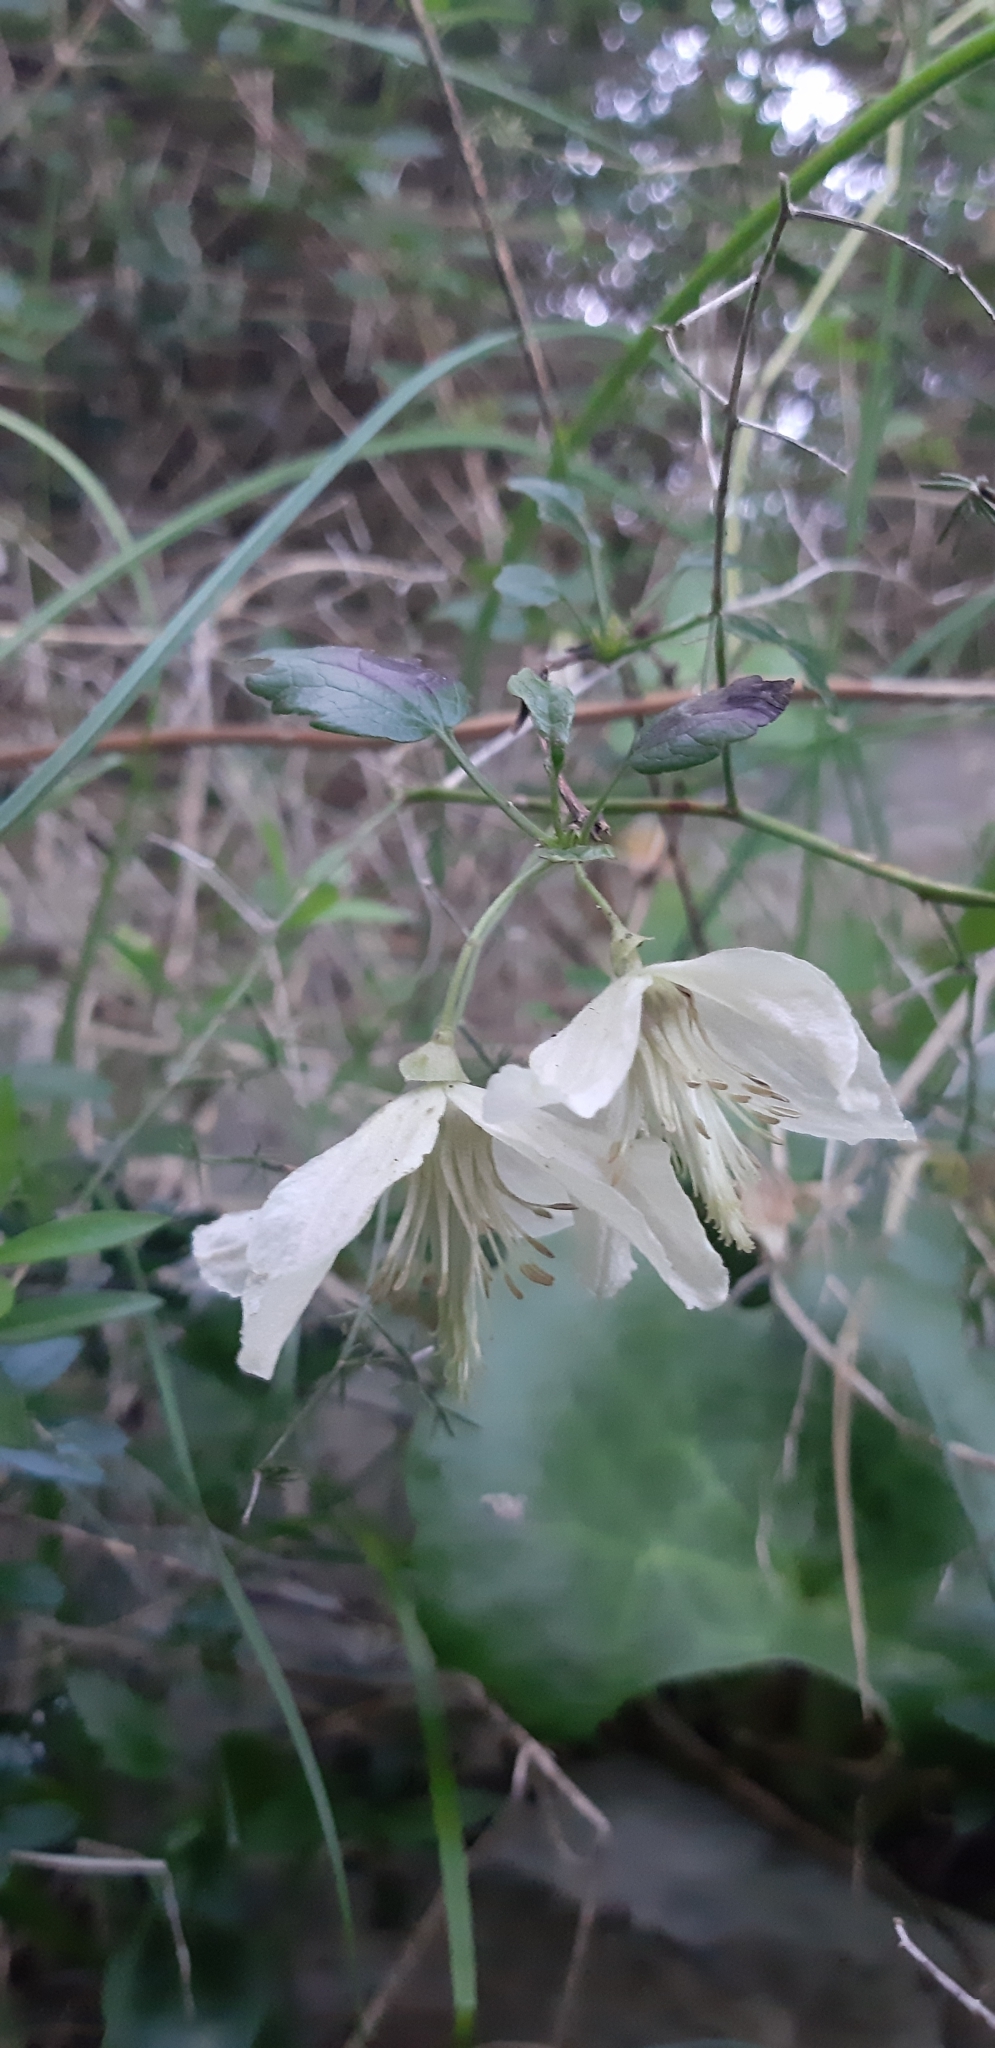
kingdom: Plantae
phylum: Tracheophyta
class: Magnoliopsida
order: Ranunculales
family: Ranunculaceae
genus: Clematis
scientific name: Clematis cirrhosa
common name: Early virgin's-bower
